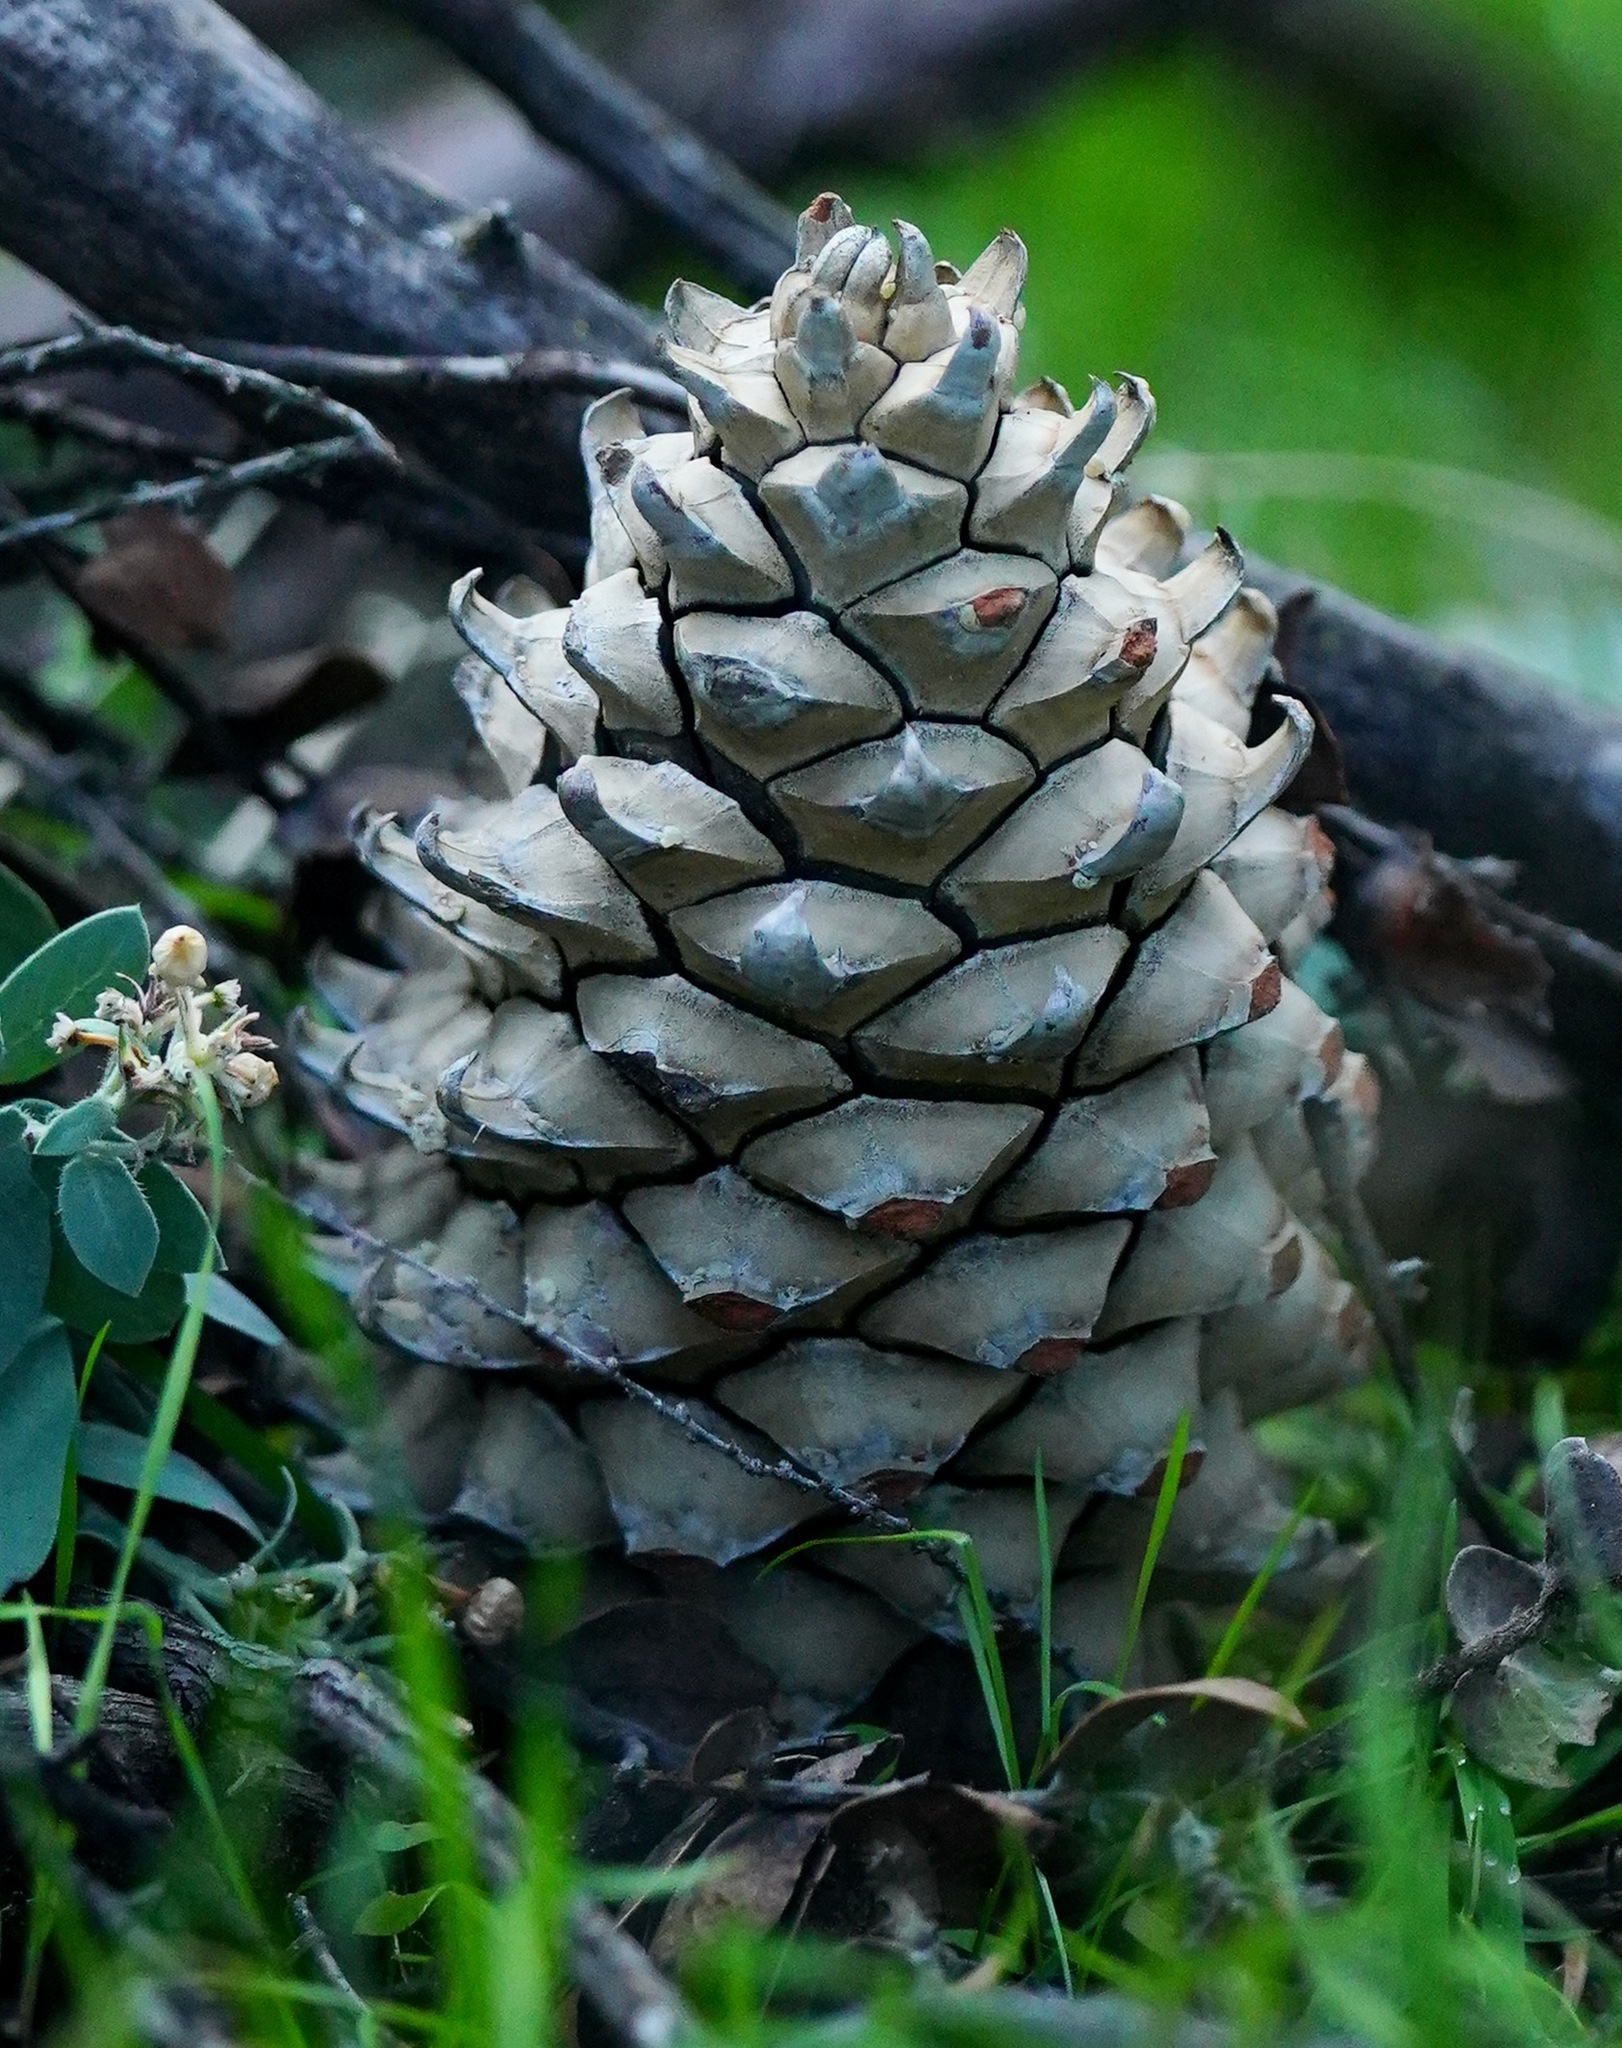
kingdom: Plantae
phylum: Tracheophyta
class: Pinopsida
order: Pinales
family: Pinaceae
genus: Pinus
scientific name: Pinus sabiniana
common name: Bull pine
